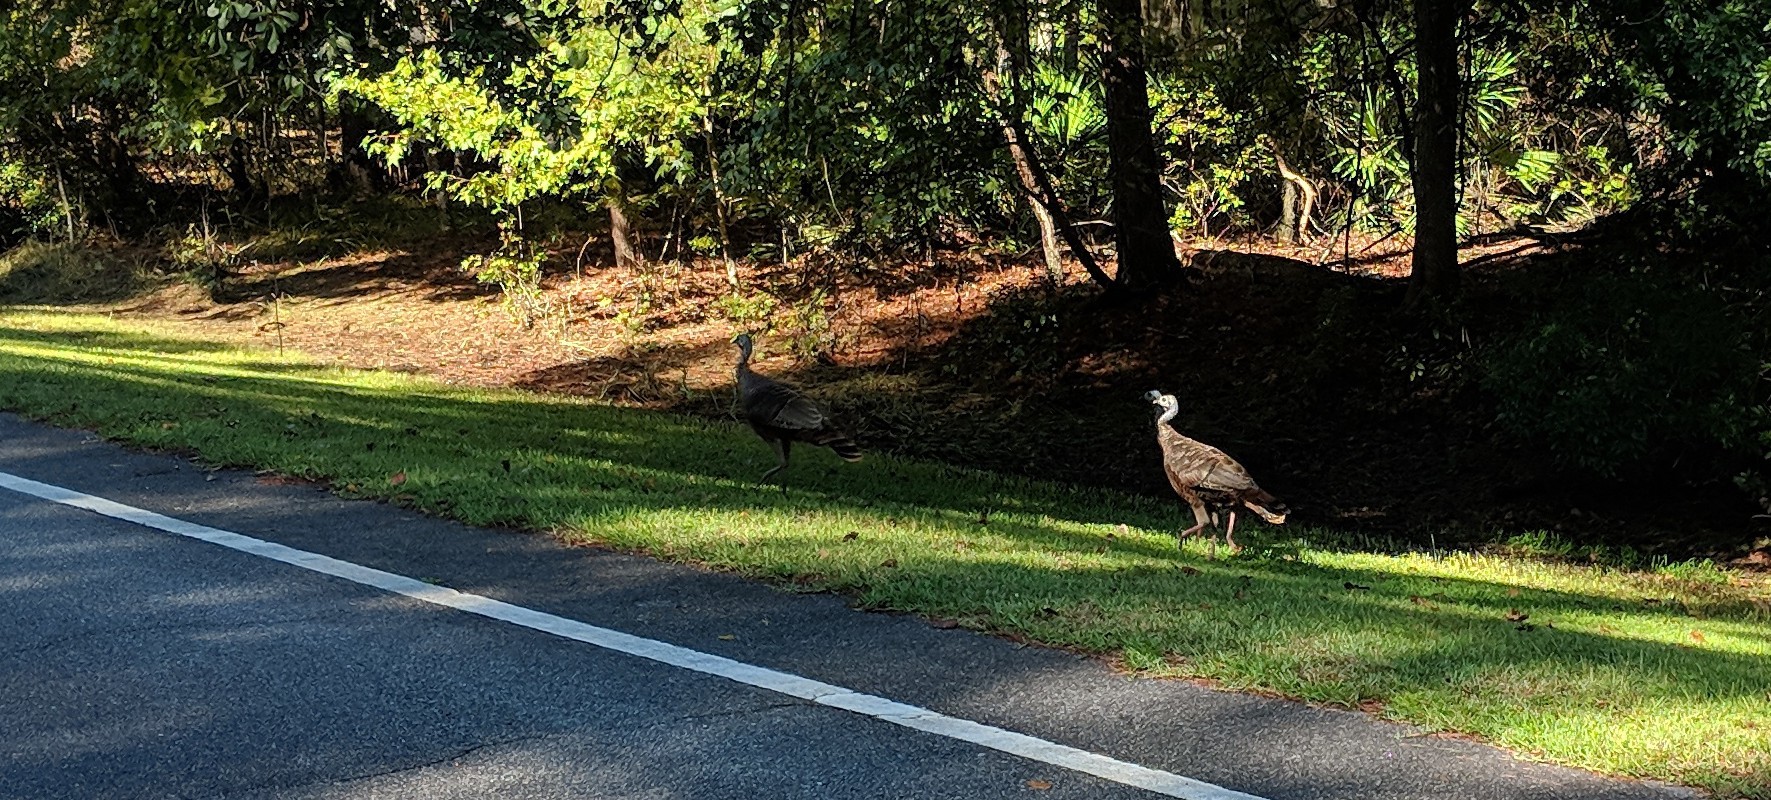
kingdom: Animalia
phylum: Chordata
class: Aves
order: Galliformes
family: Phasianidae
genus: Meleagris
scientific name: Meleagris gallopavo
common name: Wild turkey
